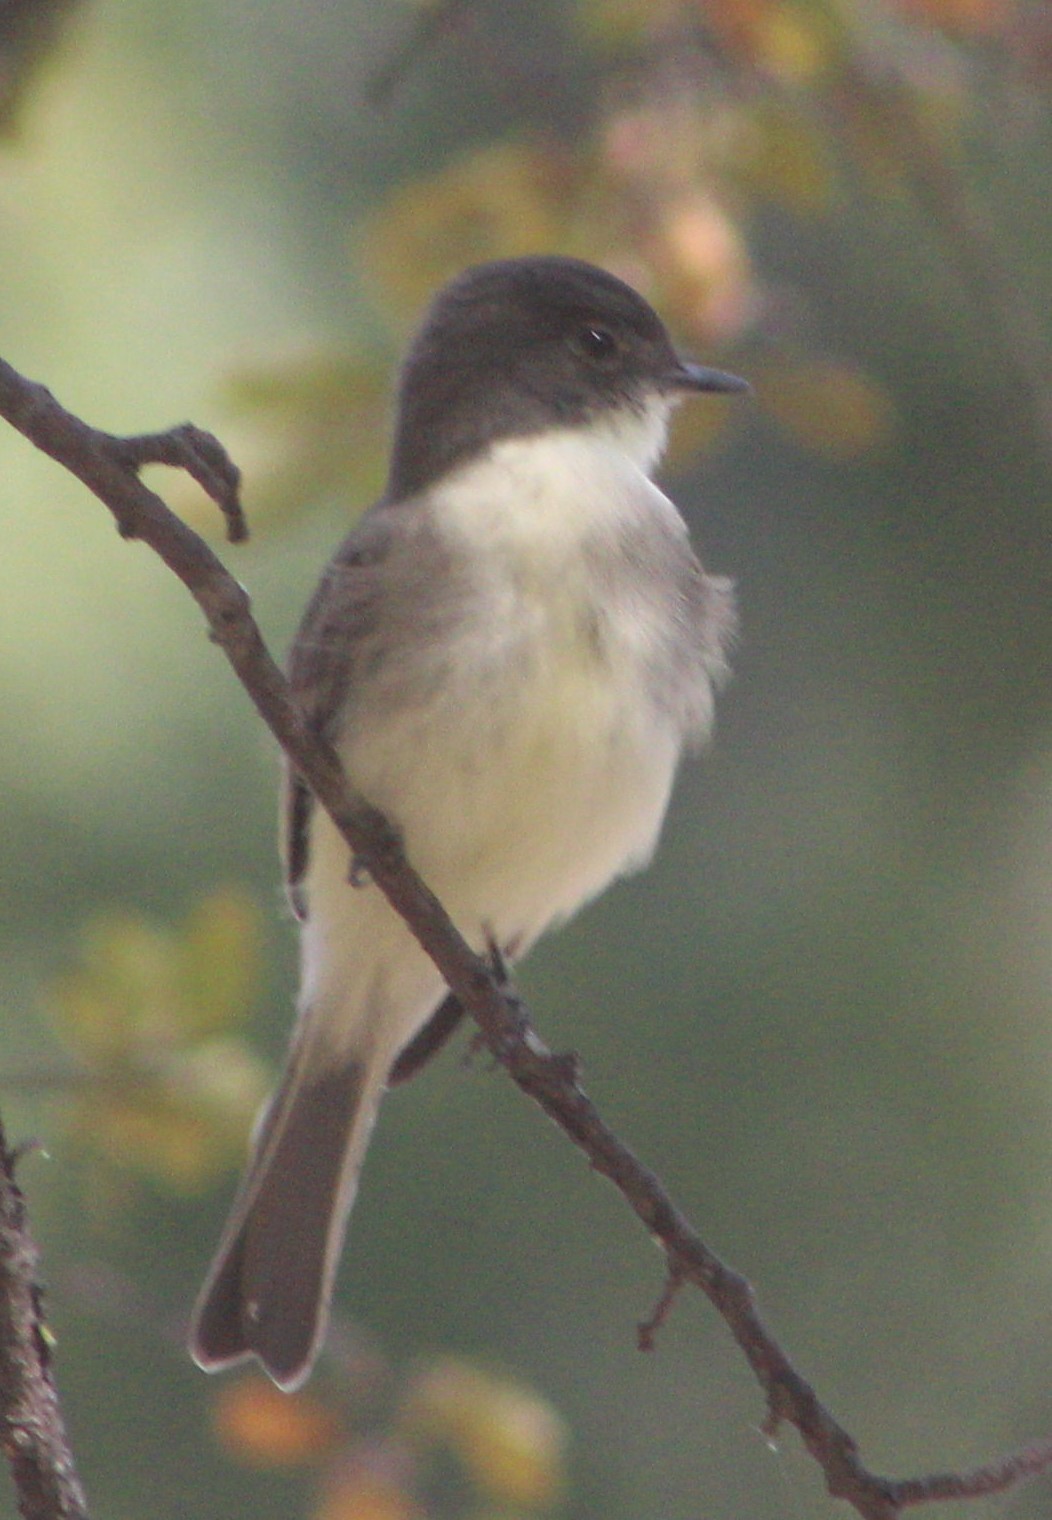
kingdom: Animalia
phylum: Chordata
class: Aves
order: Passeriformes
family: Tyrannidae
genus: Sayornis
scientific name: Sayornis phoebe
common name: Eastern phoebe
